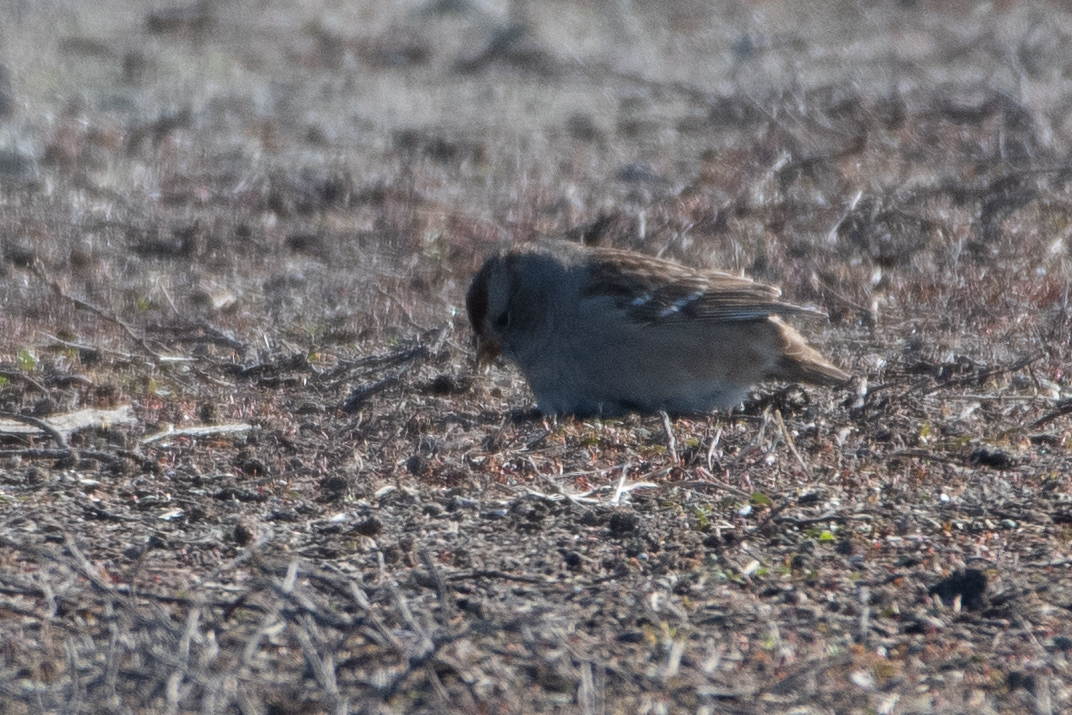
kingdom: Animalia
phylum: Chordata
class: Aves
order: Passeriformes
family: Passerellidae
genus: Zonotrichia
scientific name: Zonotrichia leucophrys
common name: White-crowned sparrow
